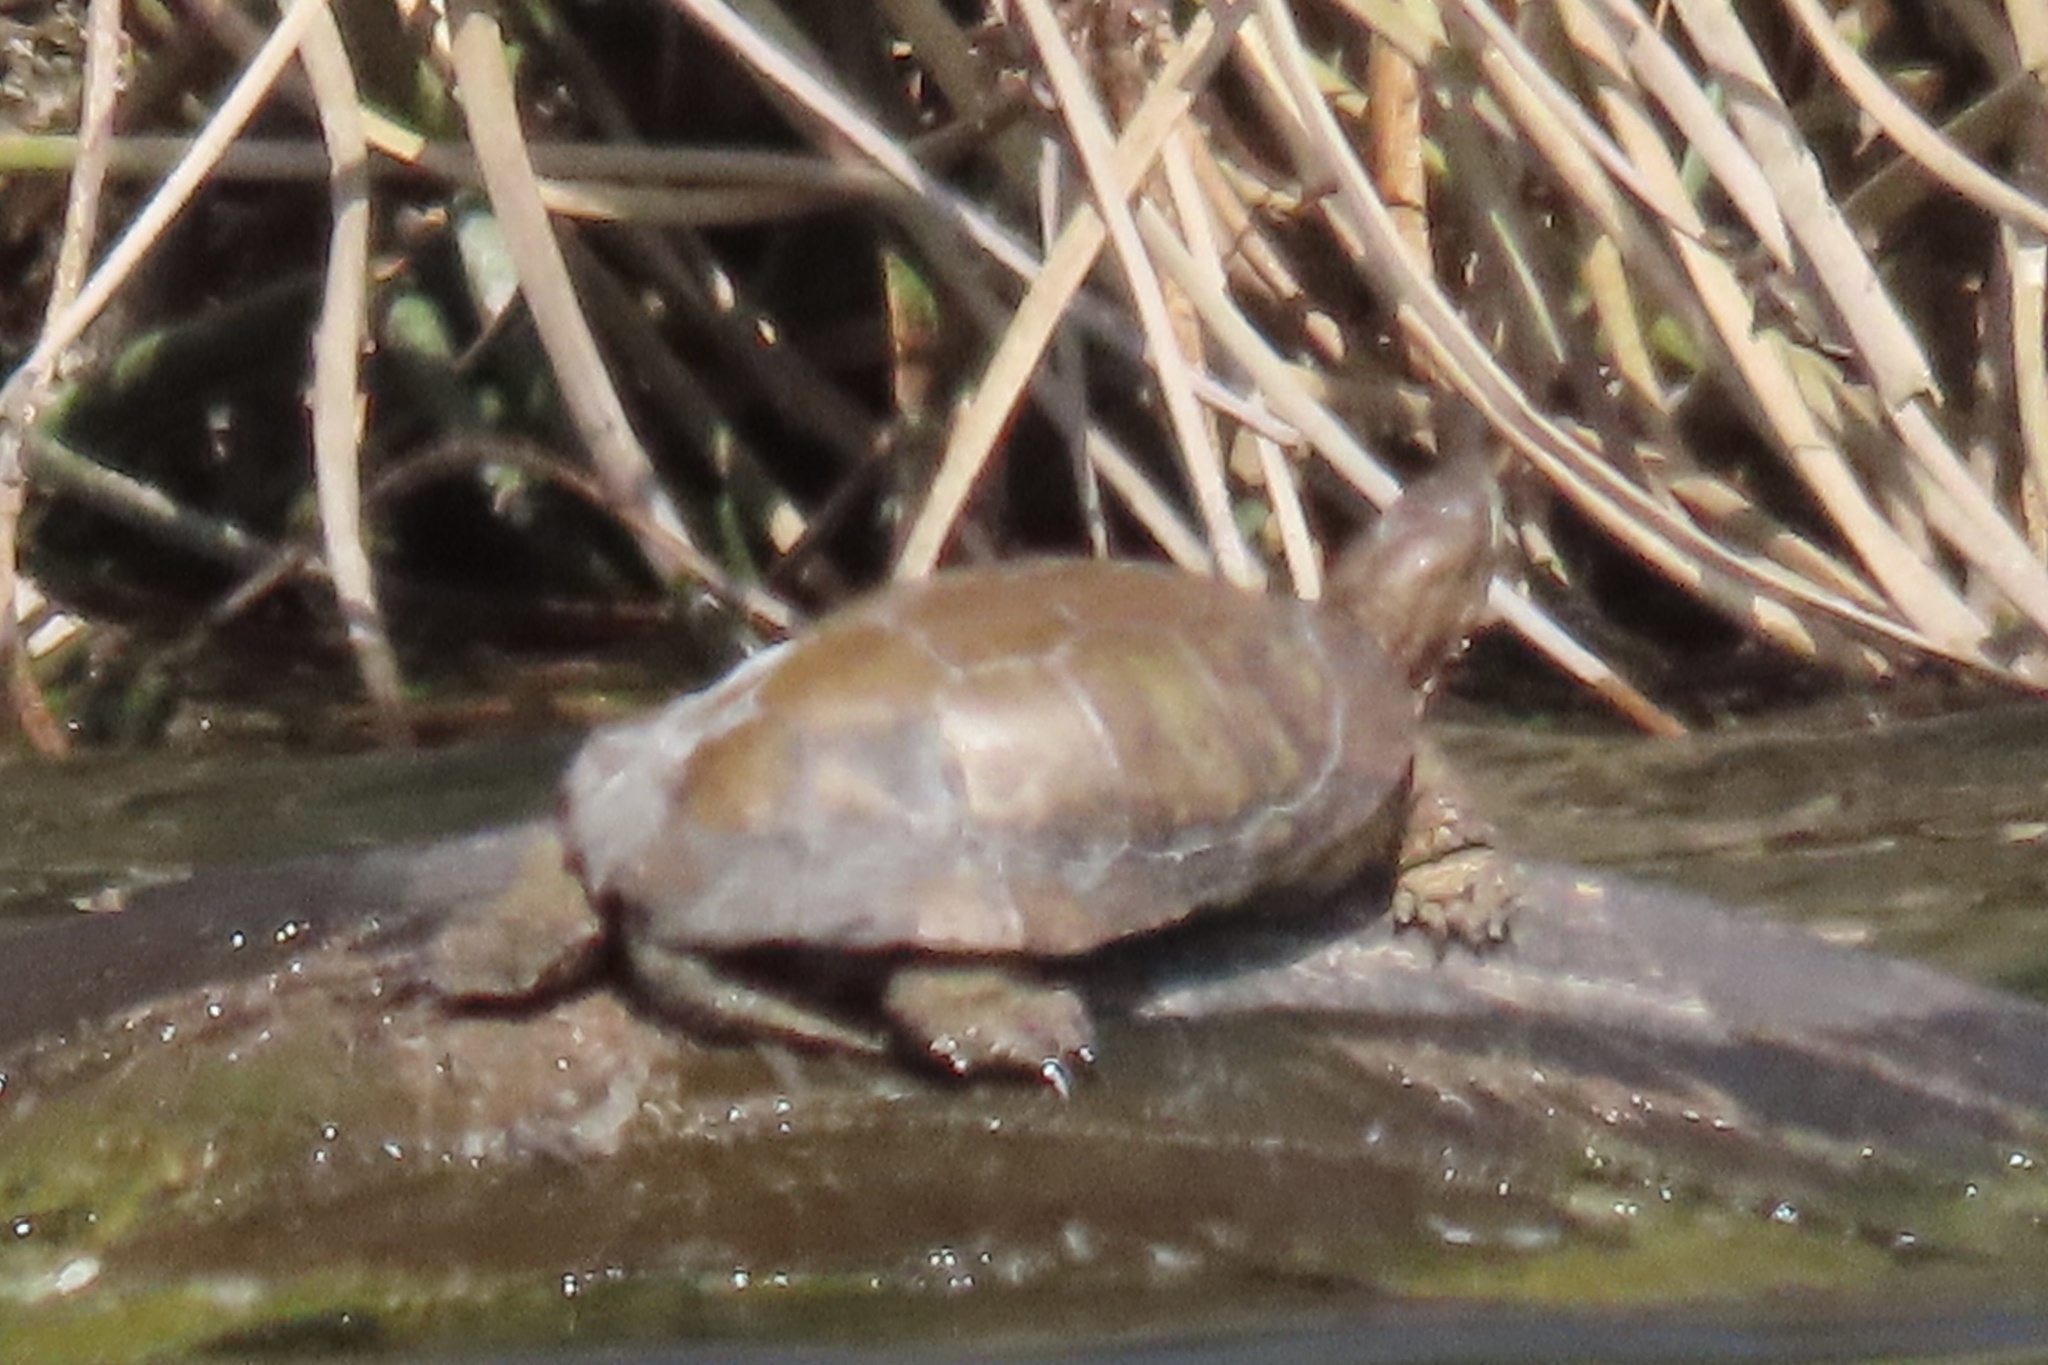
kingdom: Animalia
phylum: Chordata
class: Testudines
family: Emydidae
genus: Actinemys
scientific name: Actinemys pallida
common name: Southern pacific pond turtle
